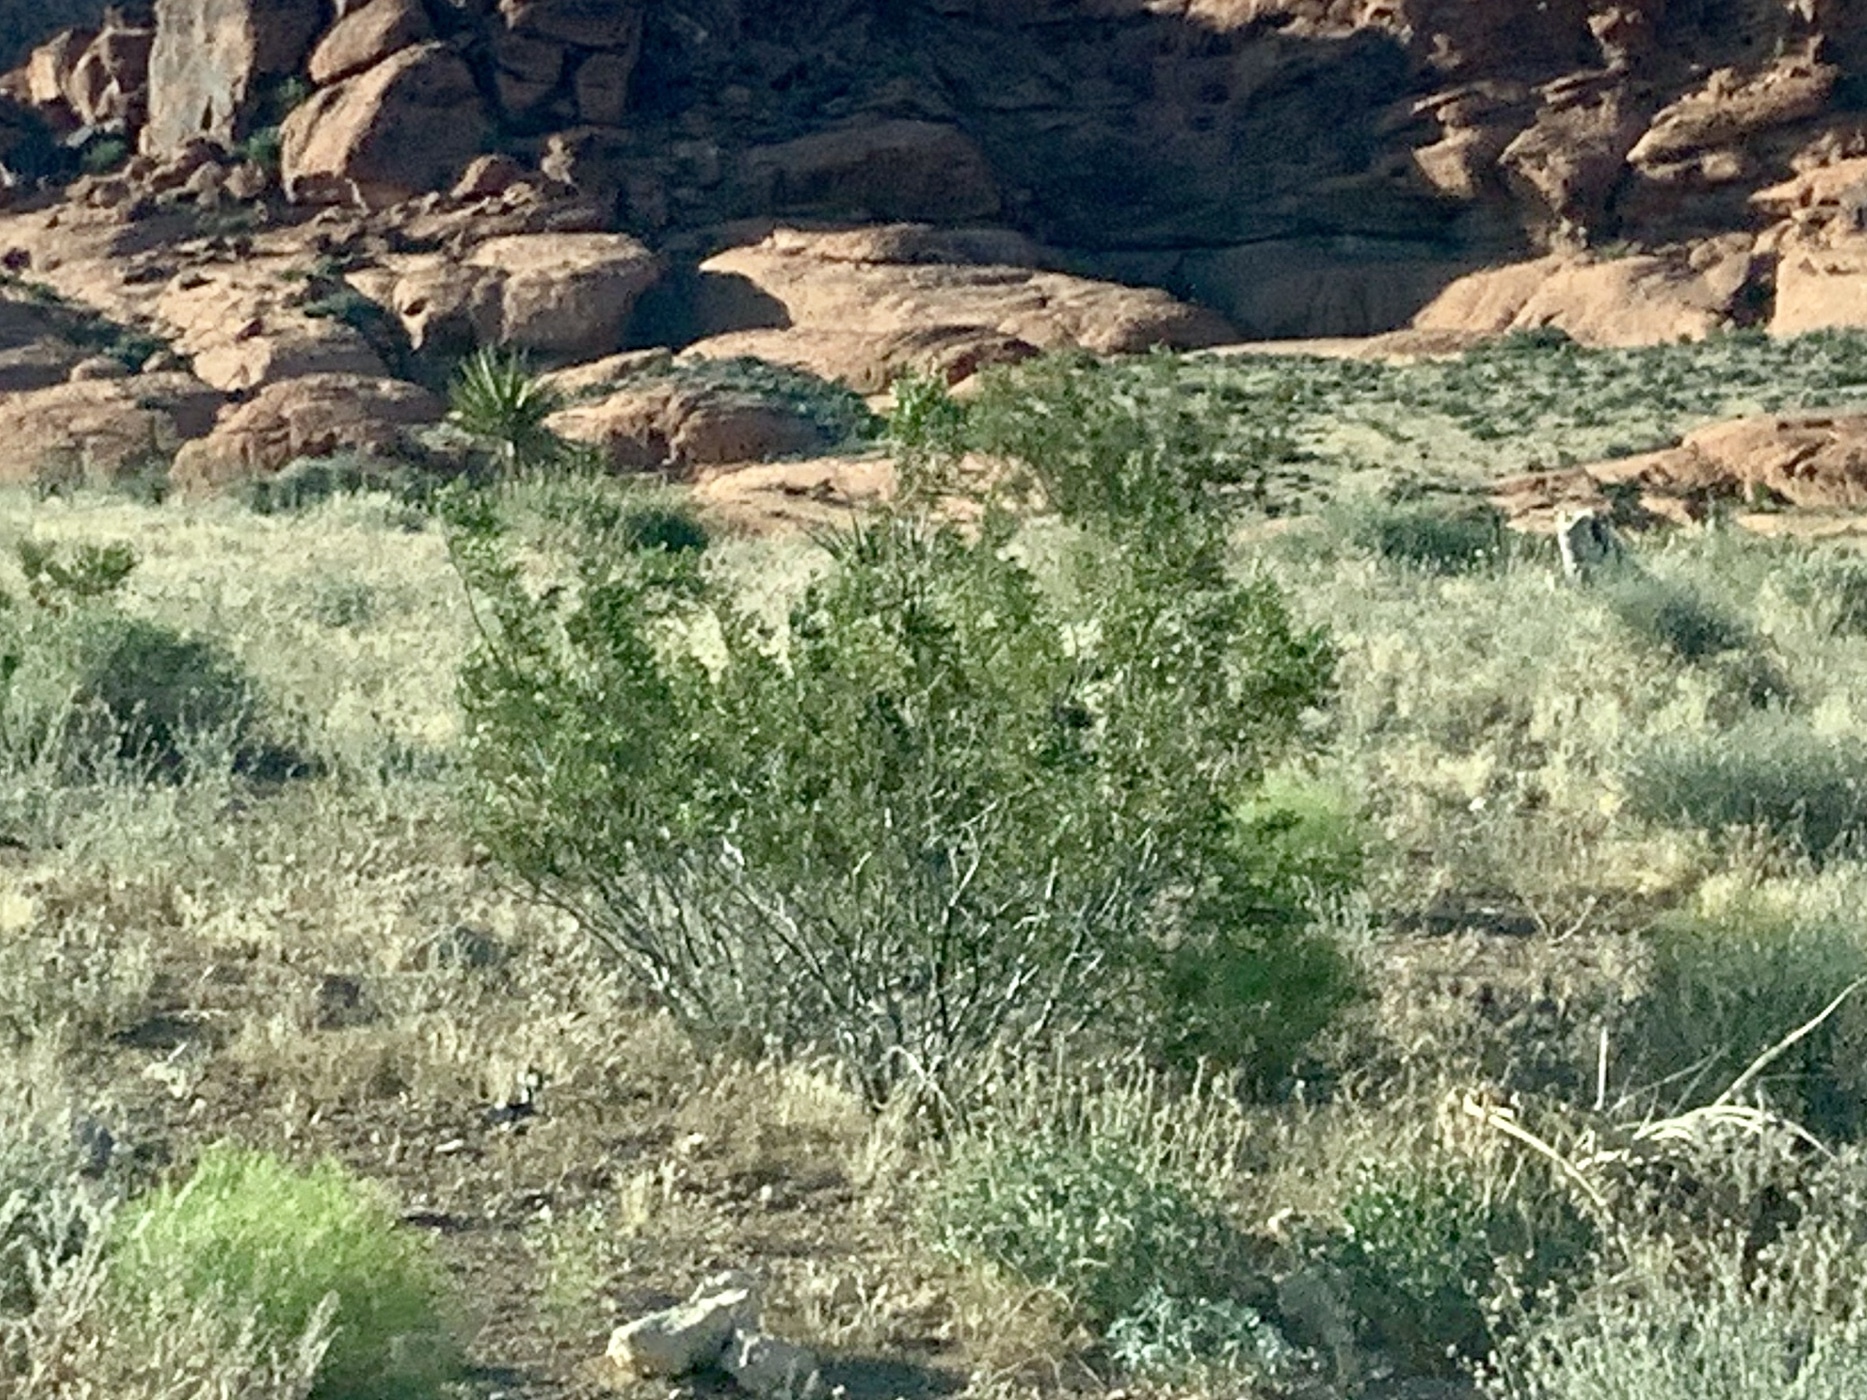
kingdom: Plantae
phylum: Tracheophyta
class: Magnoliopsida
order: Zygophyllales
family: Zygophyllaceae
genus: Larrea
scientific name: Larrea tridentata
